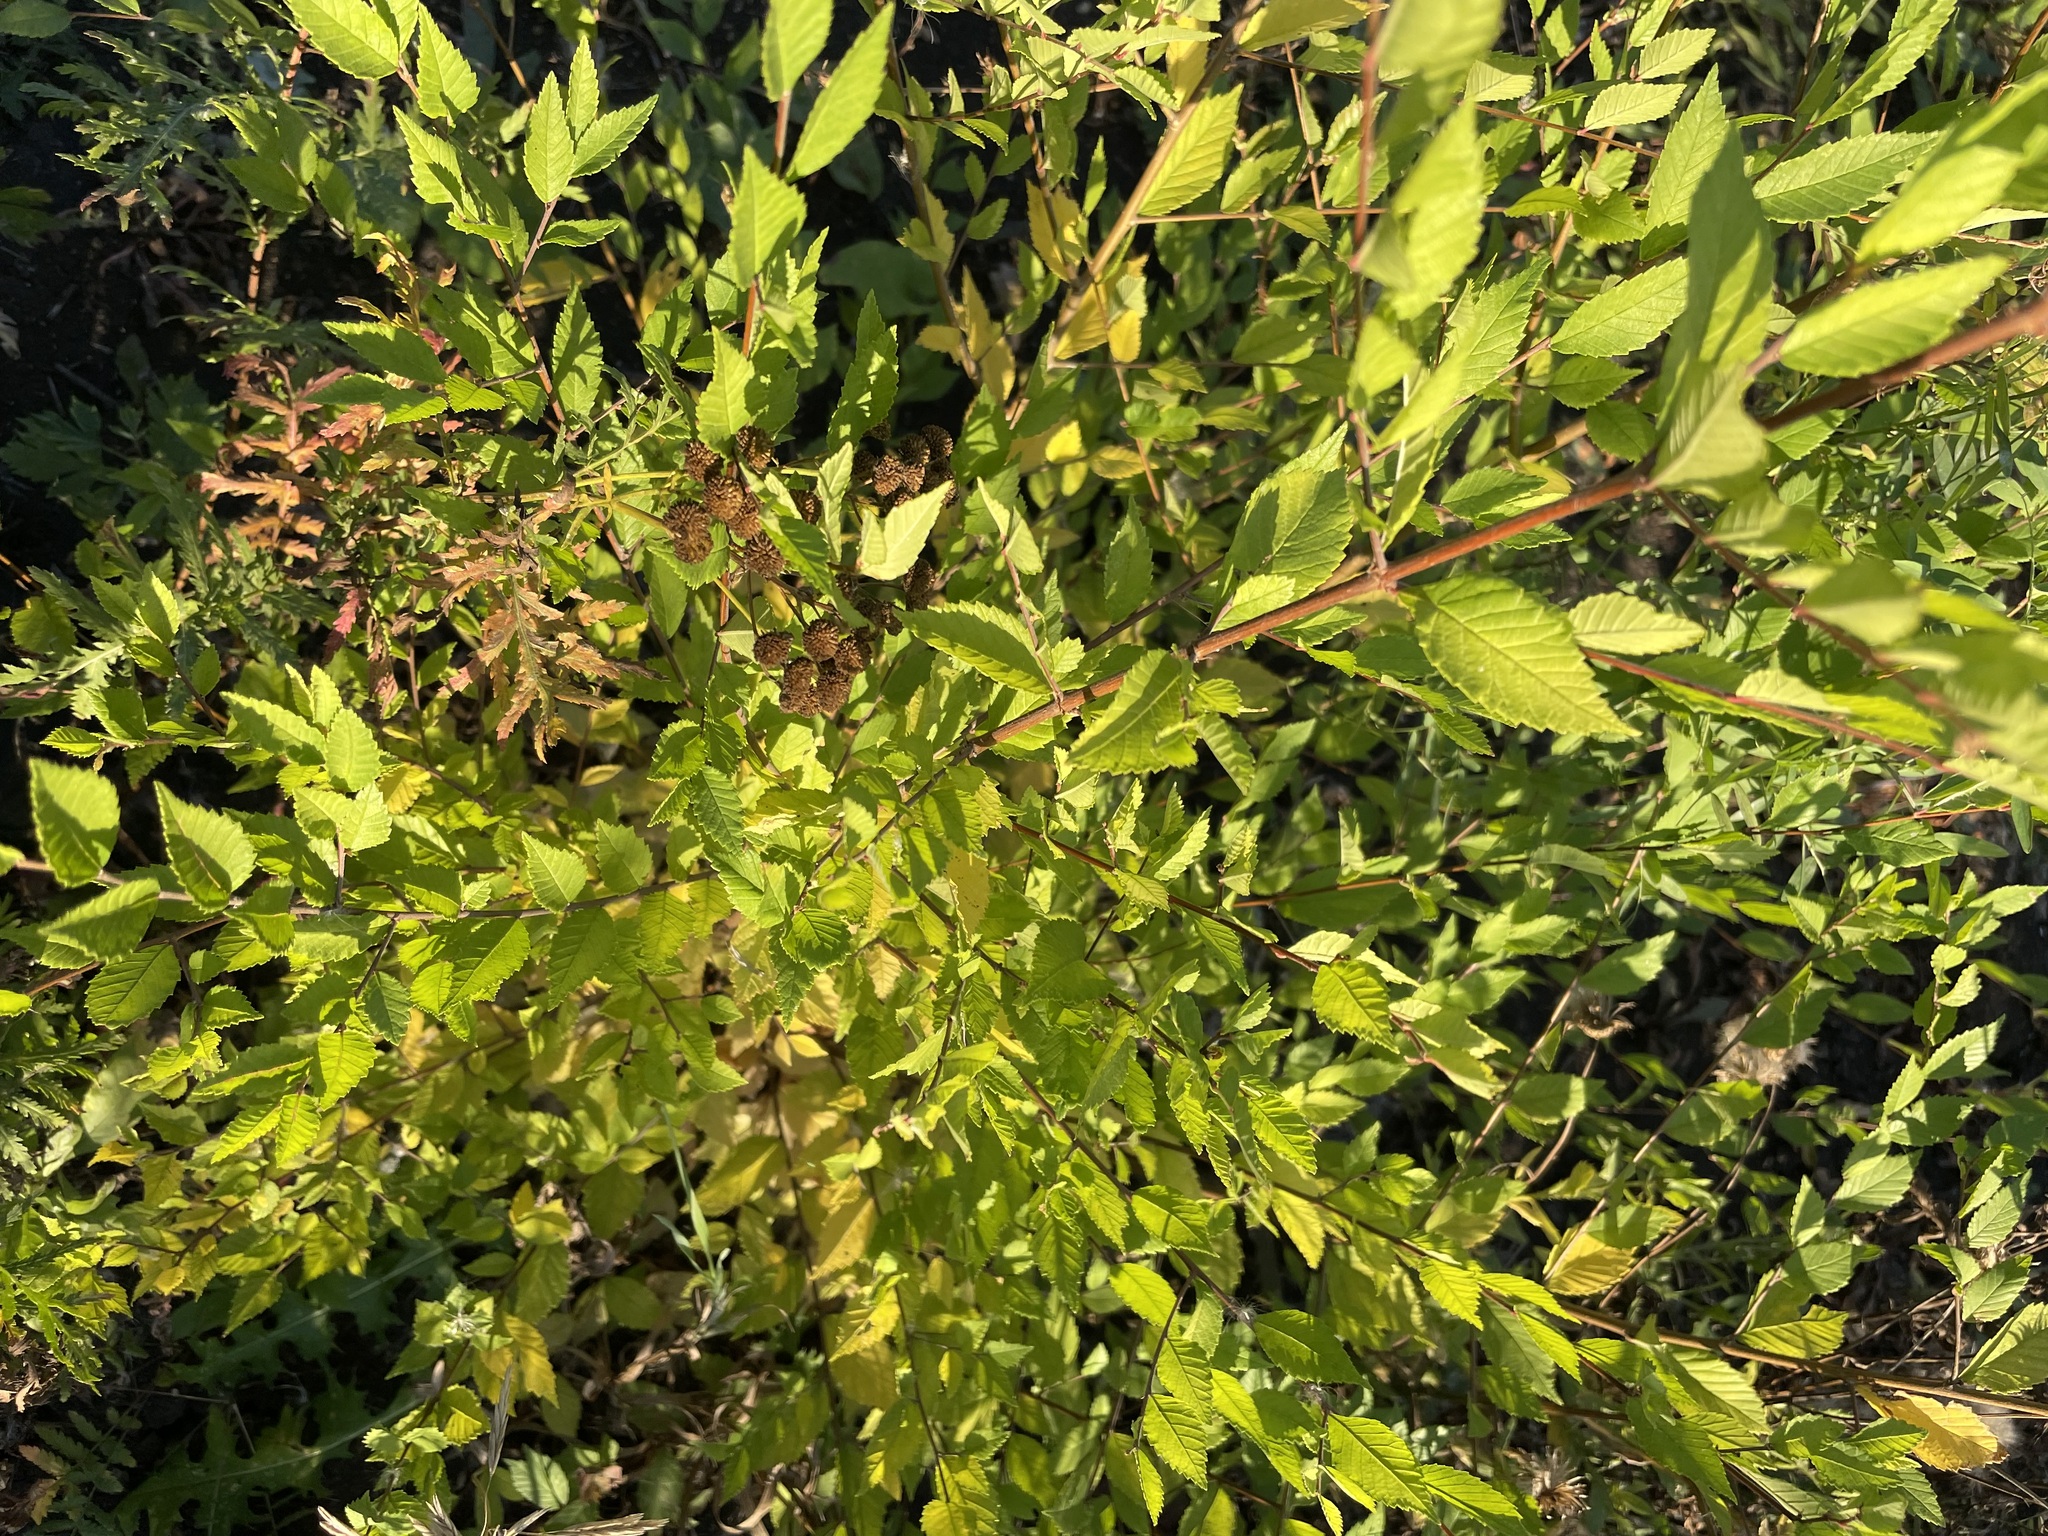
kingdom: Plantae
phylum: Tracheophyta
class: Magnoliopsida
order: Rosales
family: Ulmaceae
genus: Ulmus
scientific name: Ulmus pumila
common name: Siberian elm
